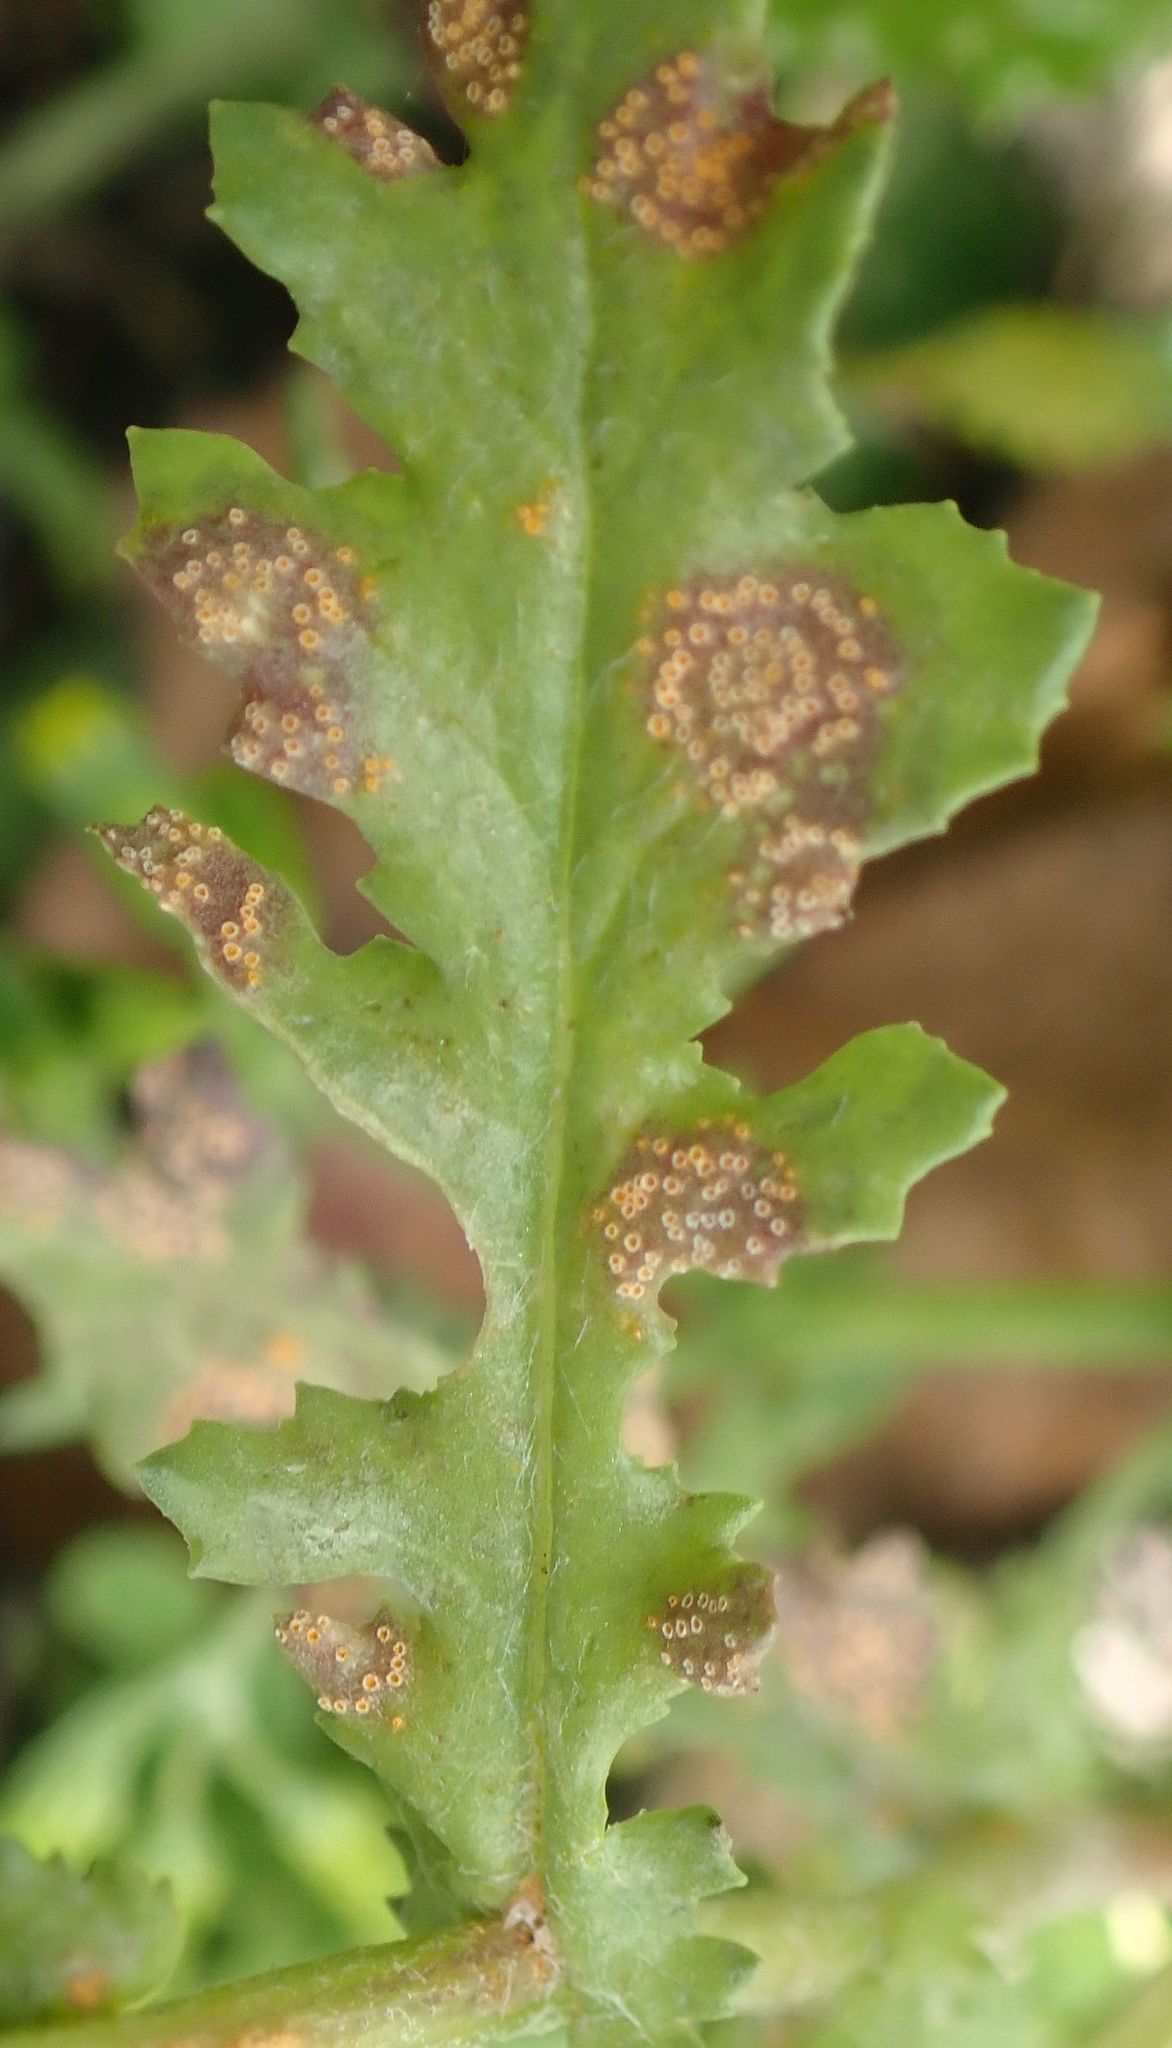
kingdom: Fungi
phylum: Basidiomycota
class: Pucciniomycetes
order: Pucciniales
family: Pucciniaceae
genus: Puccinia
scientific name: Puccinia lagenophorae
